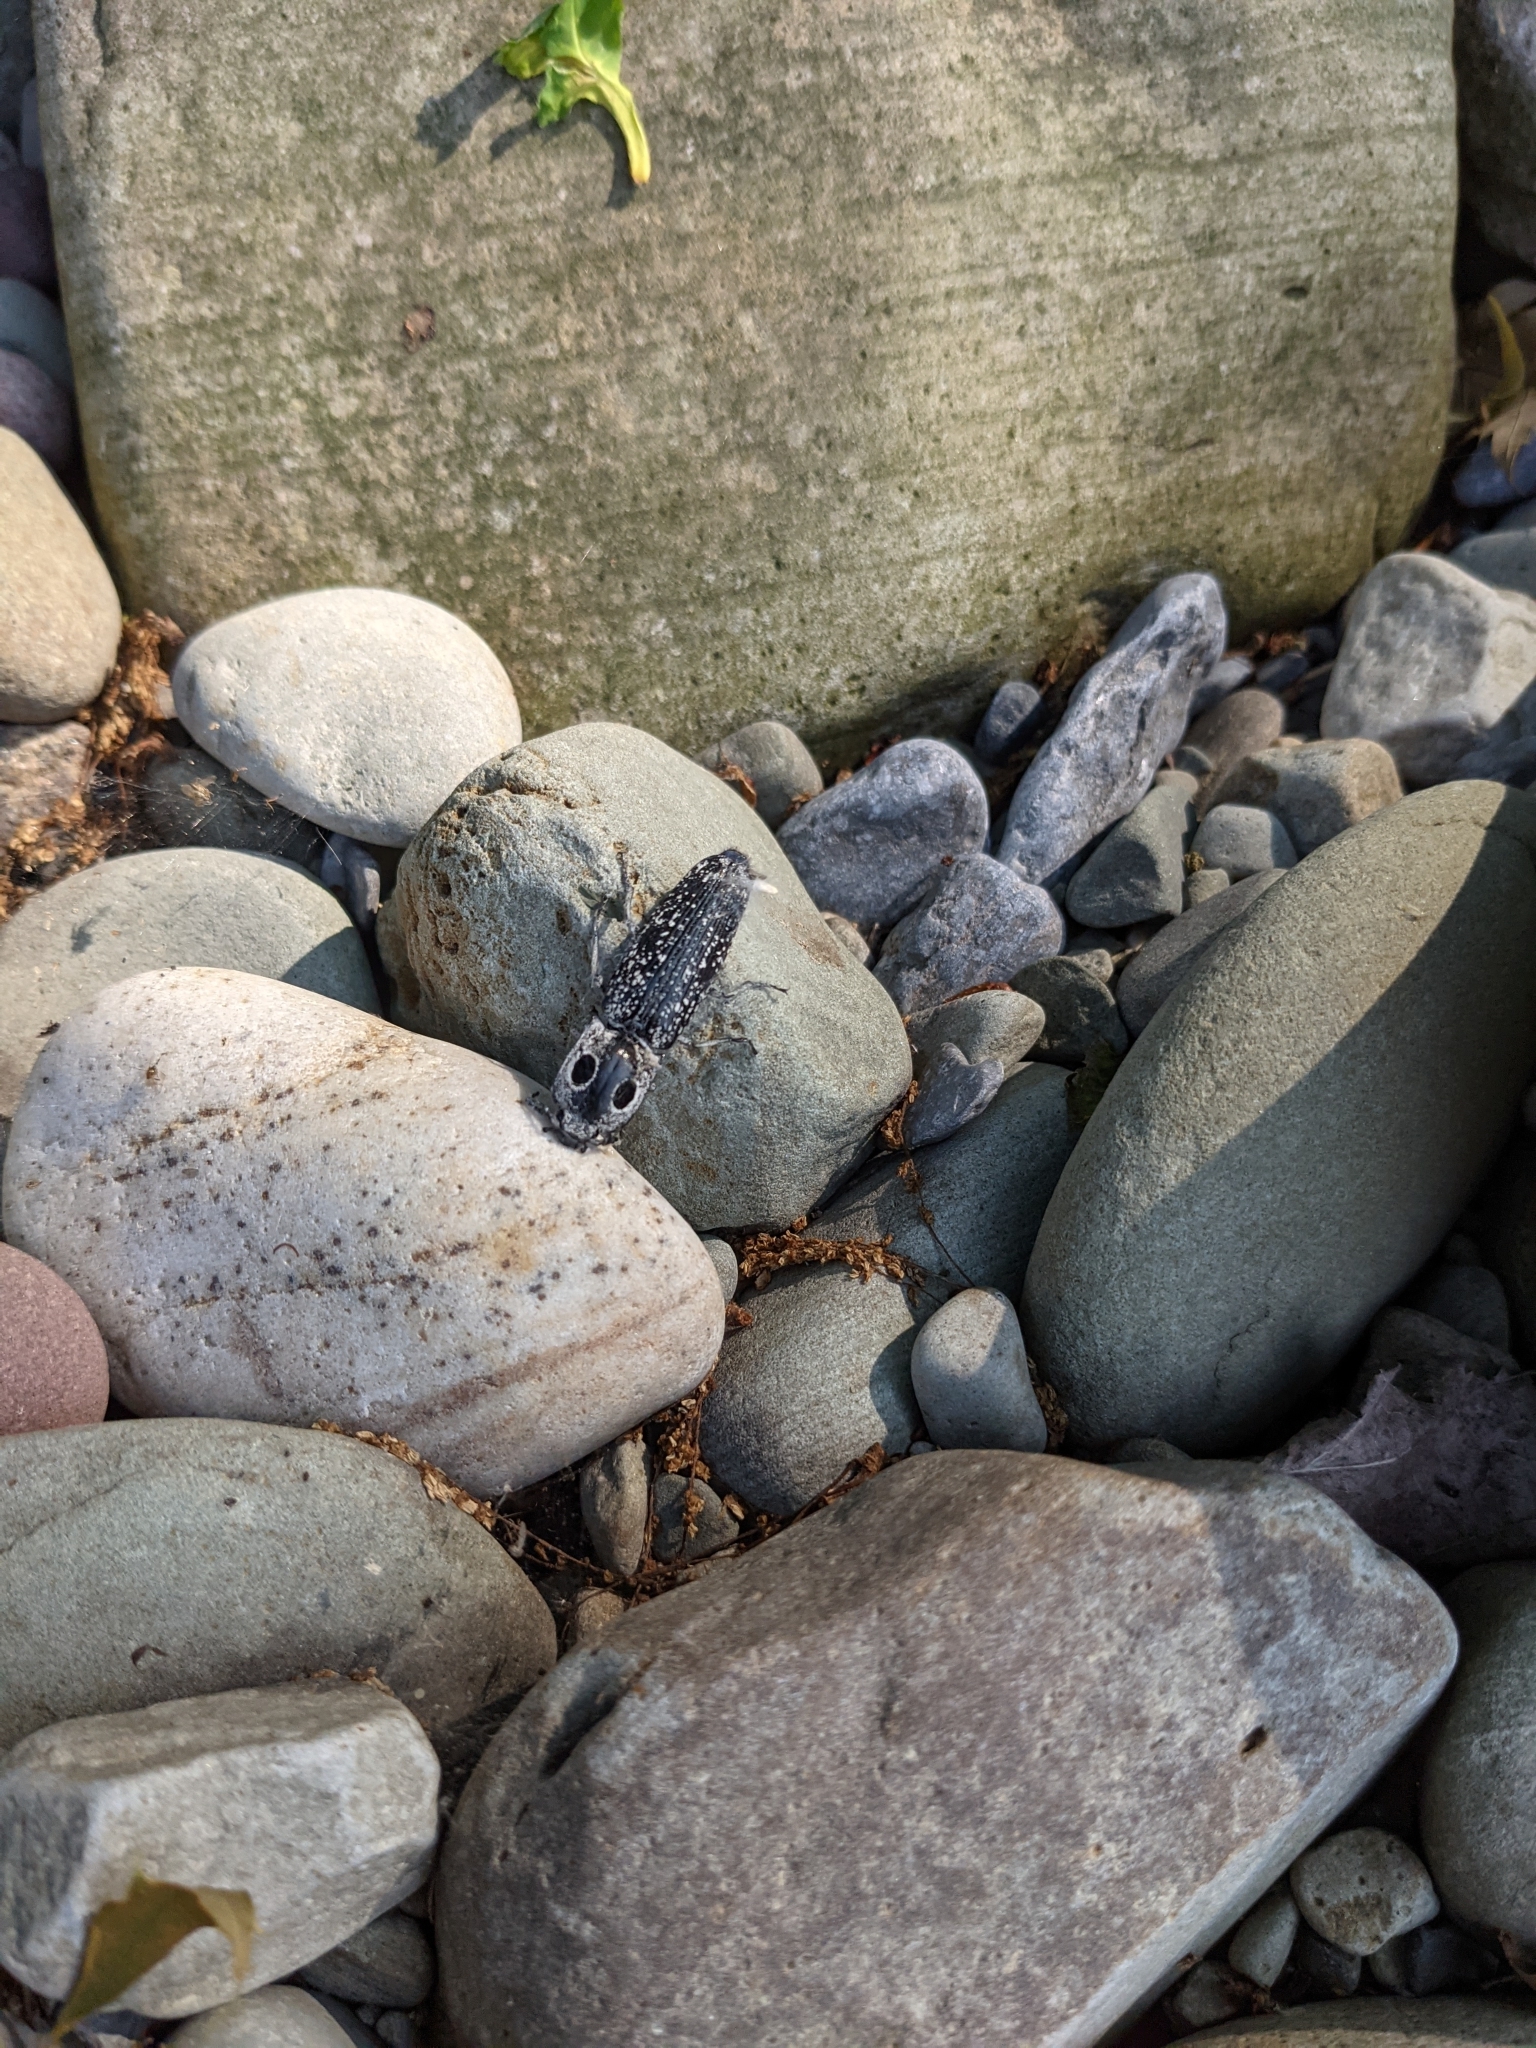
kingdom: Animalia
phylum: Arthropoda
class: Insecta
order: Coleoptera
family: Elateridae
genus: Alaus
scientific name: Alaus oculatus
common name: Eastern eyed click beetle
